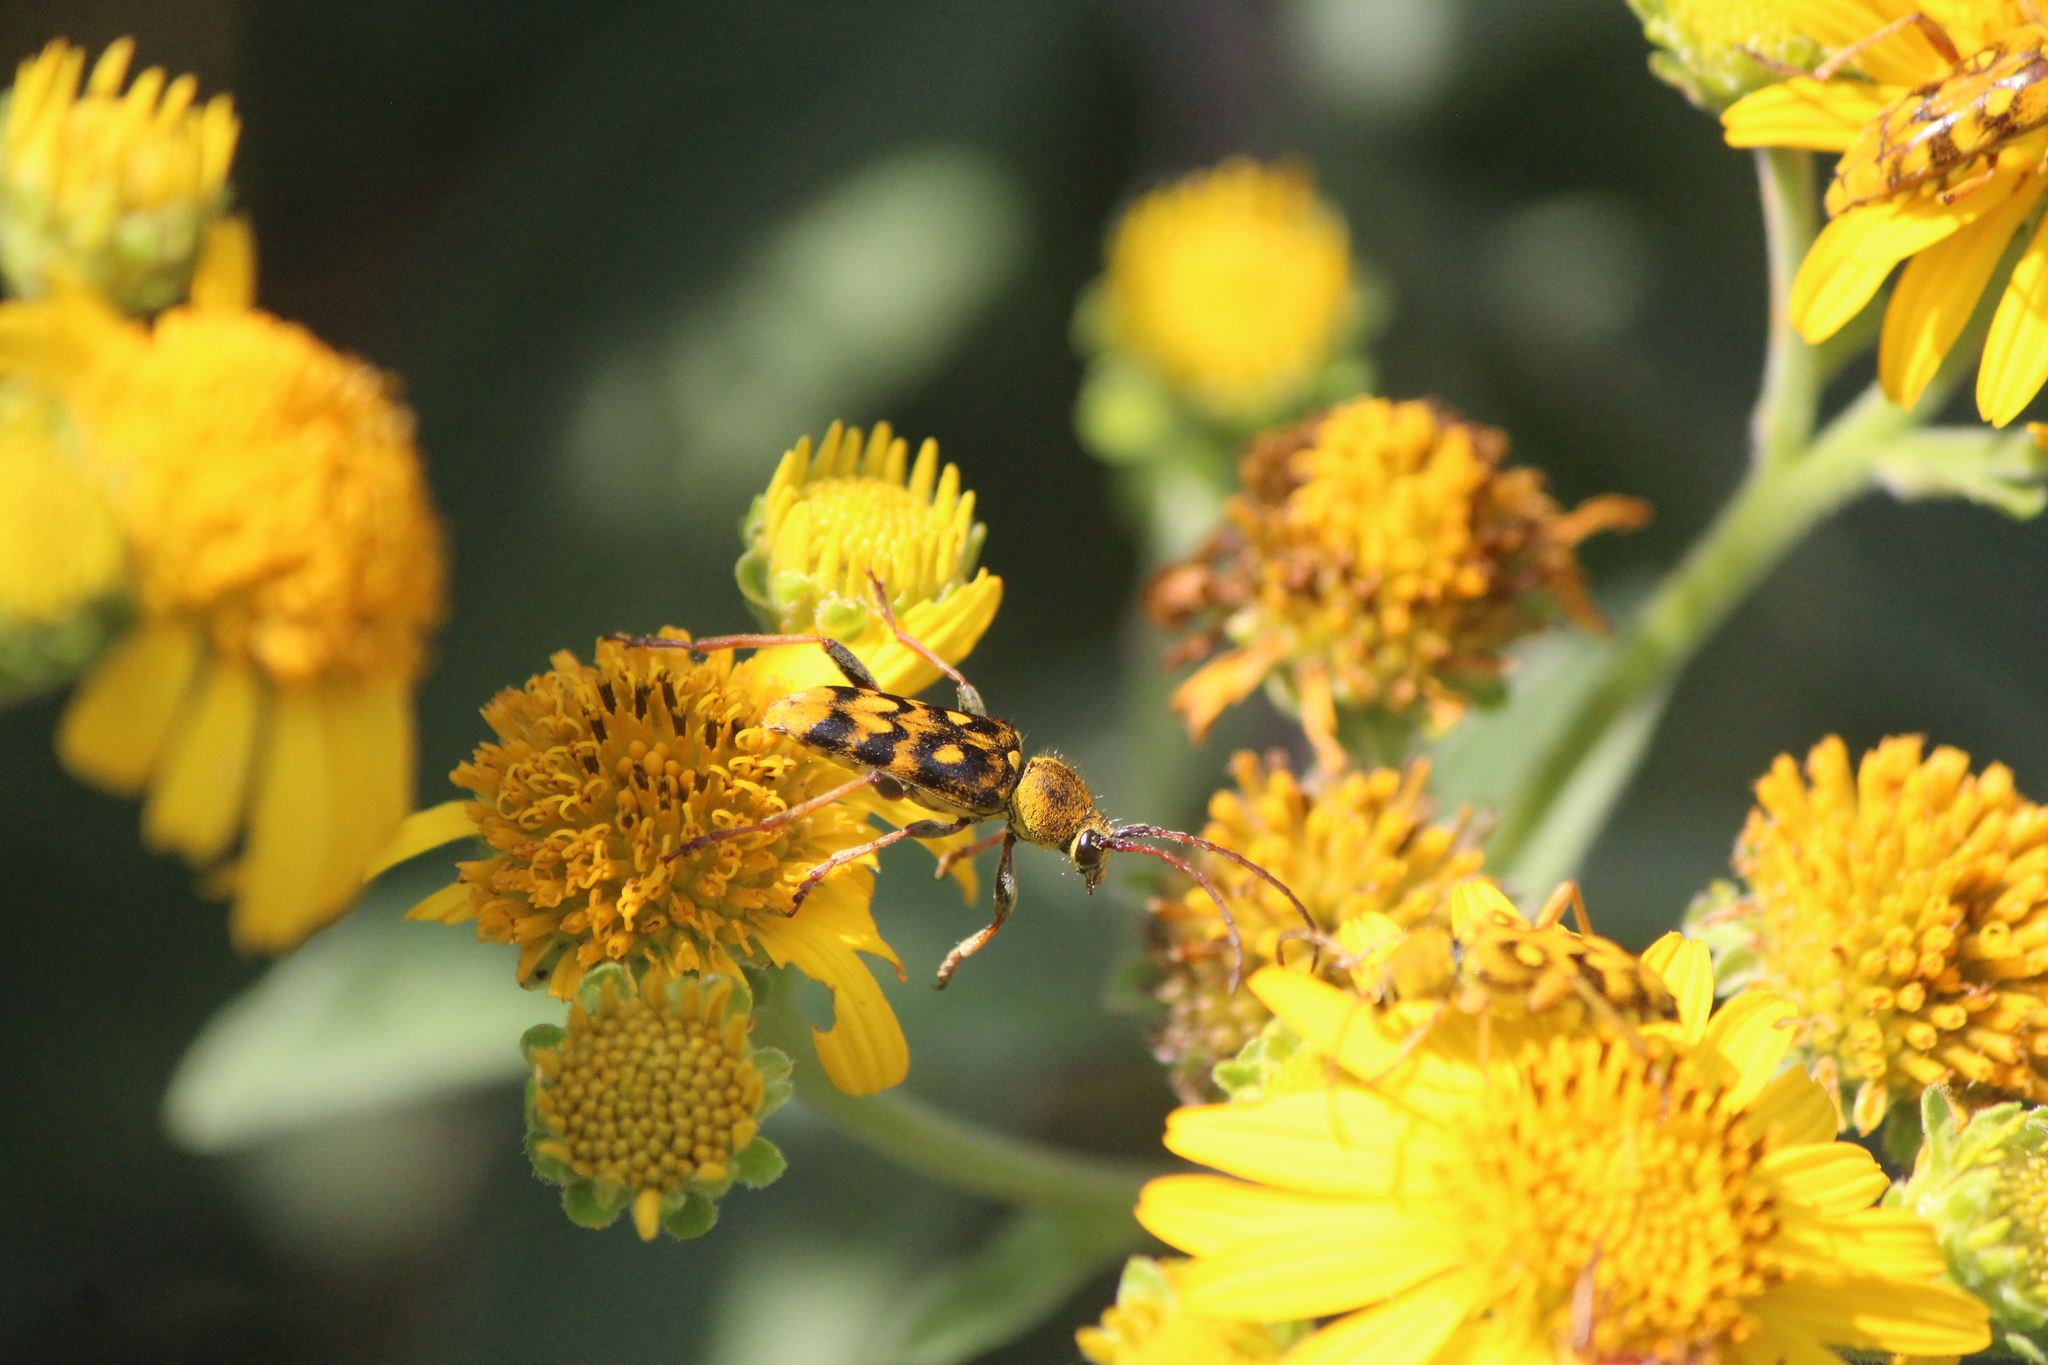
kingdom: Animalia
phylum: Arthropoda
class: Insecta
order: Coleoptera
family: Cerambycidae
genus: Ochraethes
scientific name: Ochraethes sommeri
